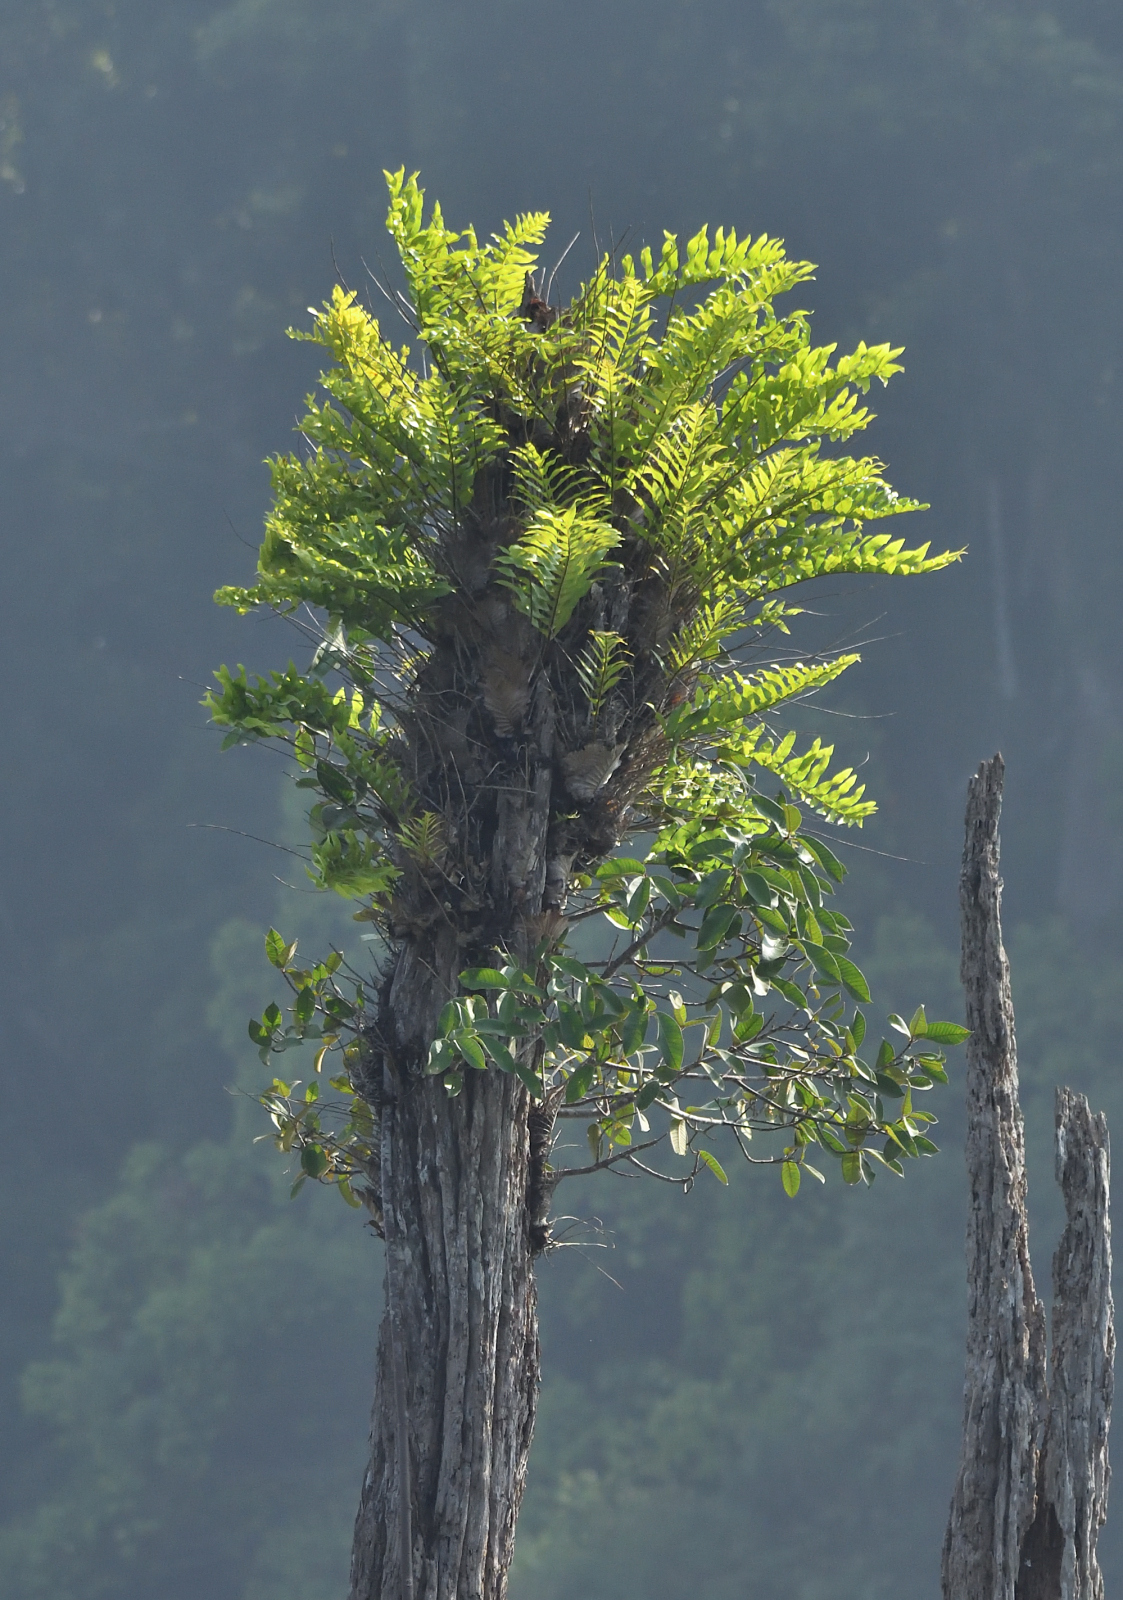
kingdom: Plantae
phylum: Tracheophyta
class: Polypodiopsida
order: Polypodiales
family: Polypodiaceae
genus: Drynaria
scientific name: Drynaria quercifolia
